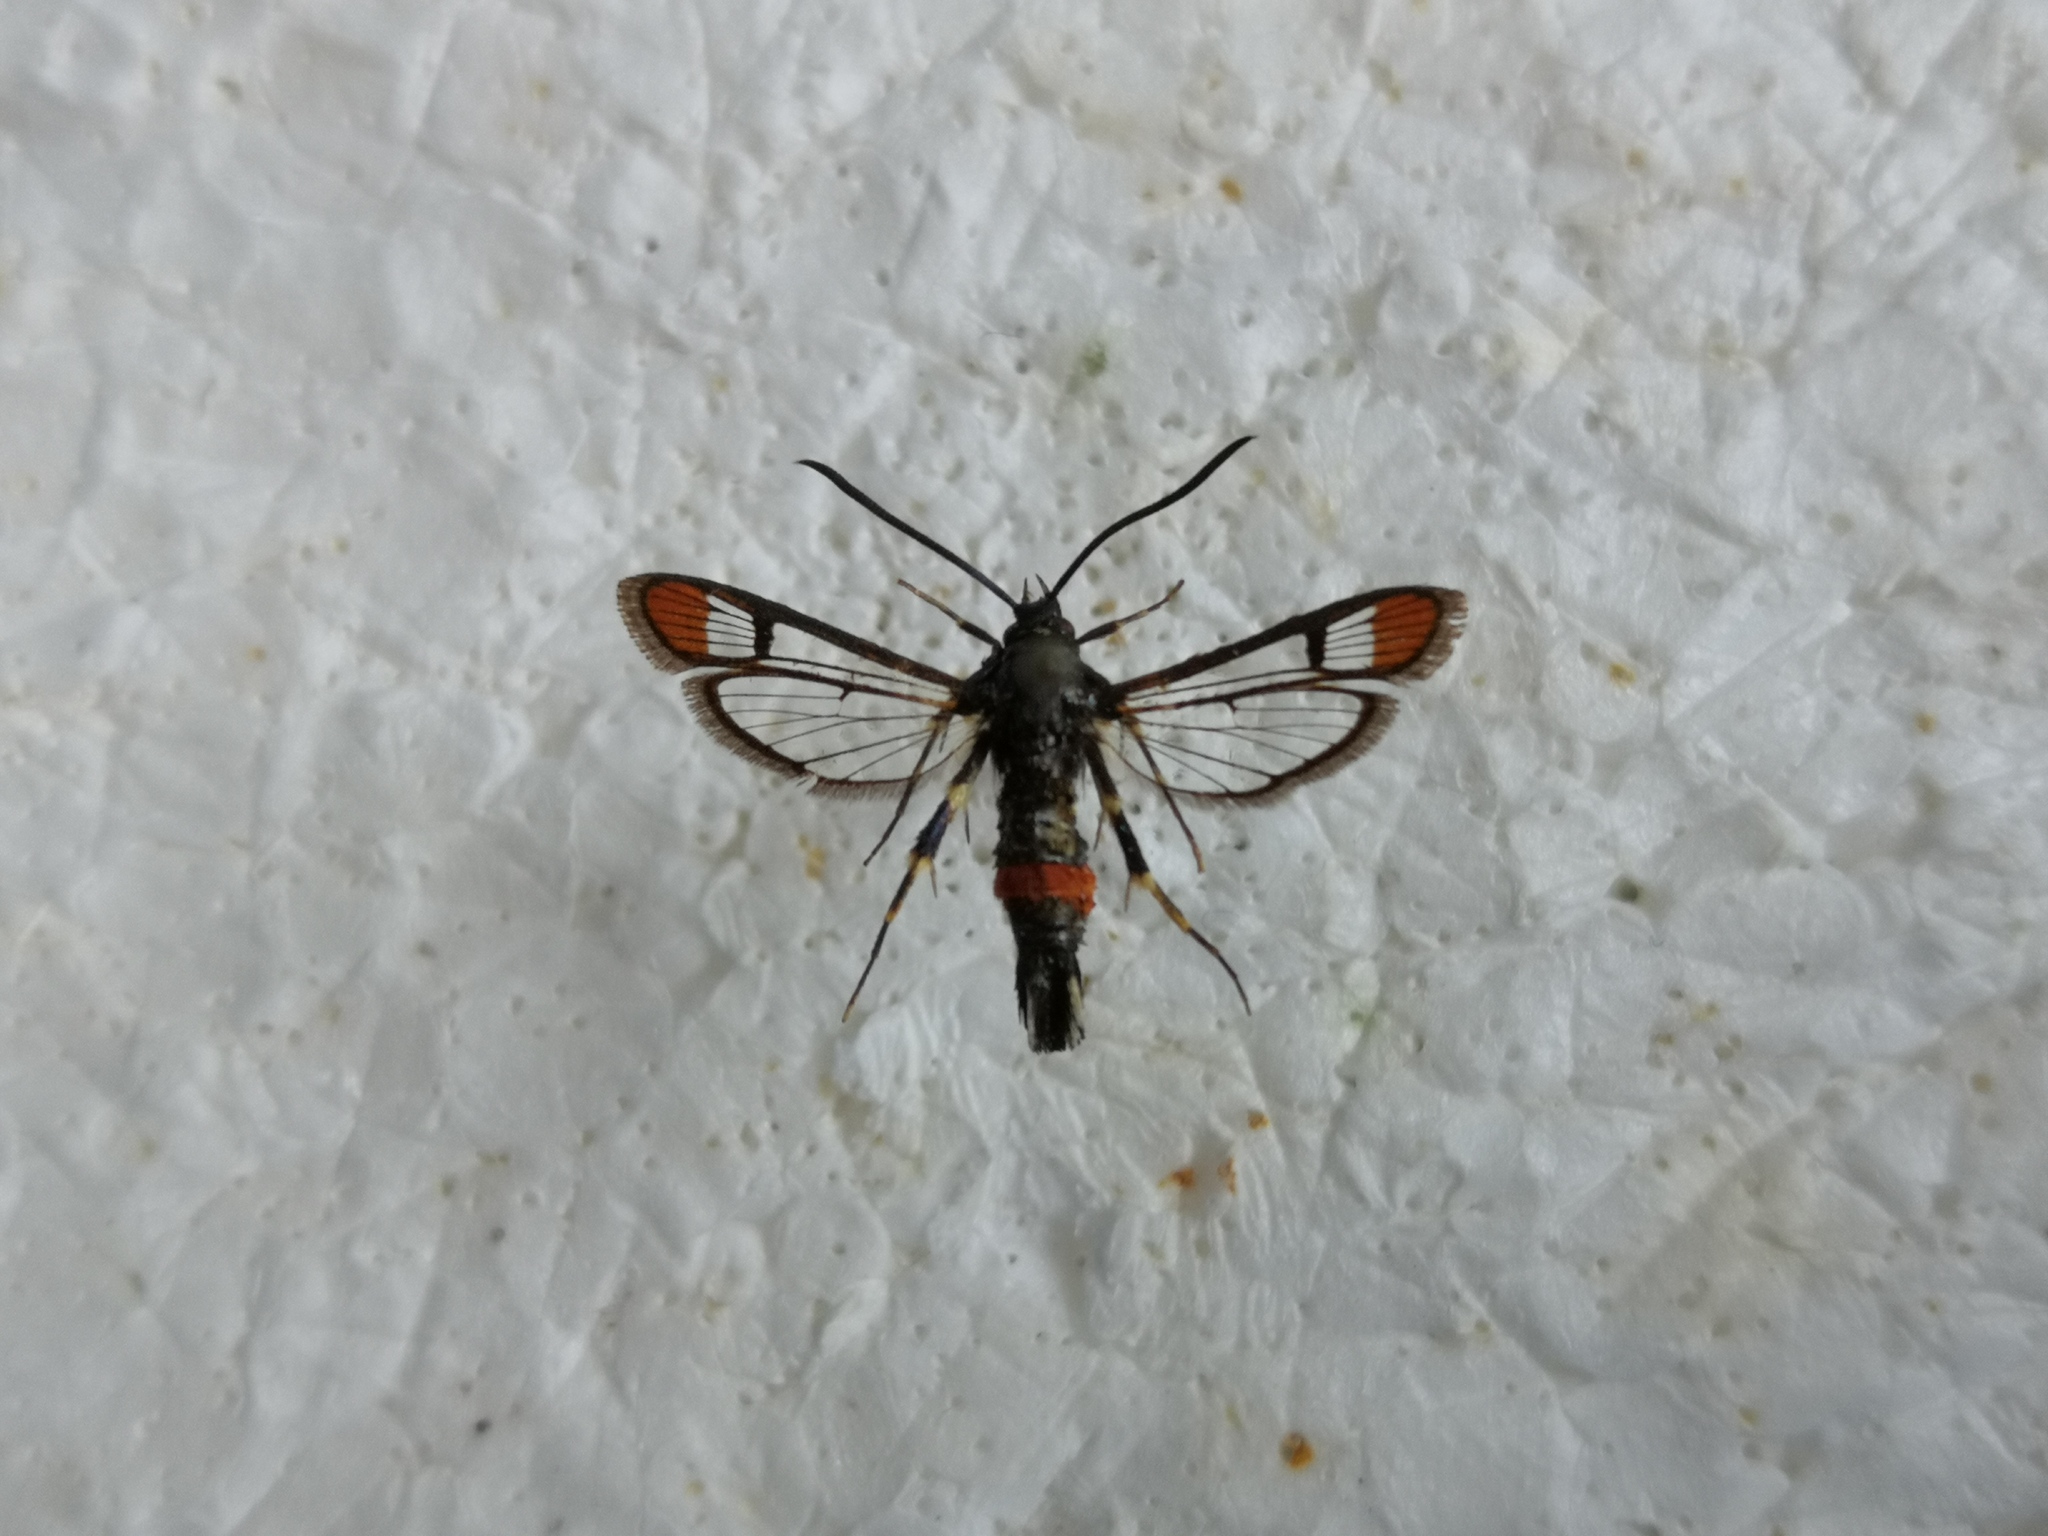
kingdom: Animalia
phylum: Arthropoda
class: Insecta
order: Lepidoptera
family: Sesiidae
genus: Synanthedon
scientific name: Synanthedon formicaeformis
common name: Red-tipped clearwing
